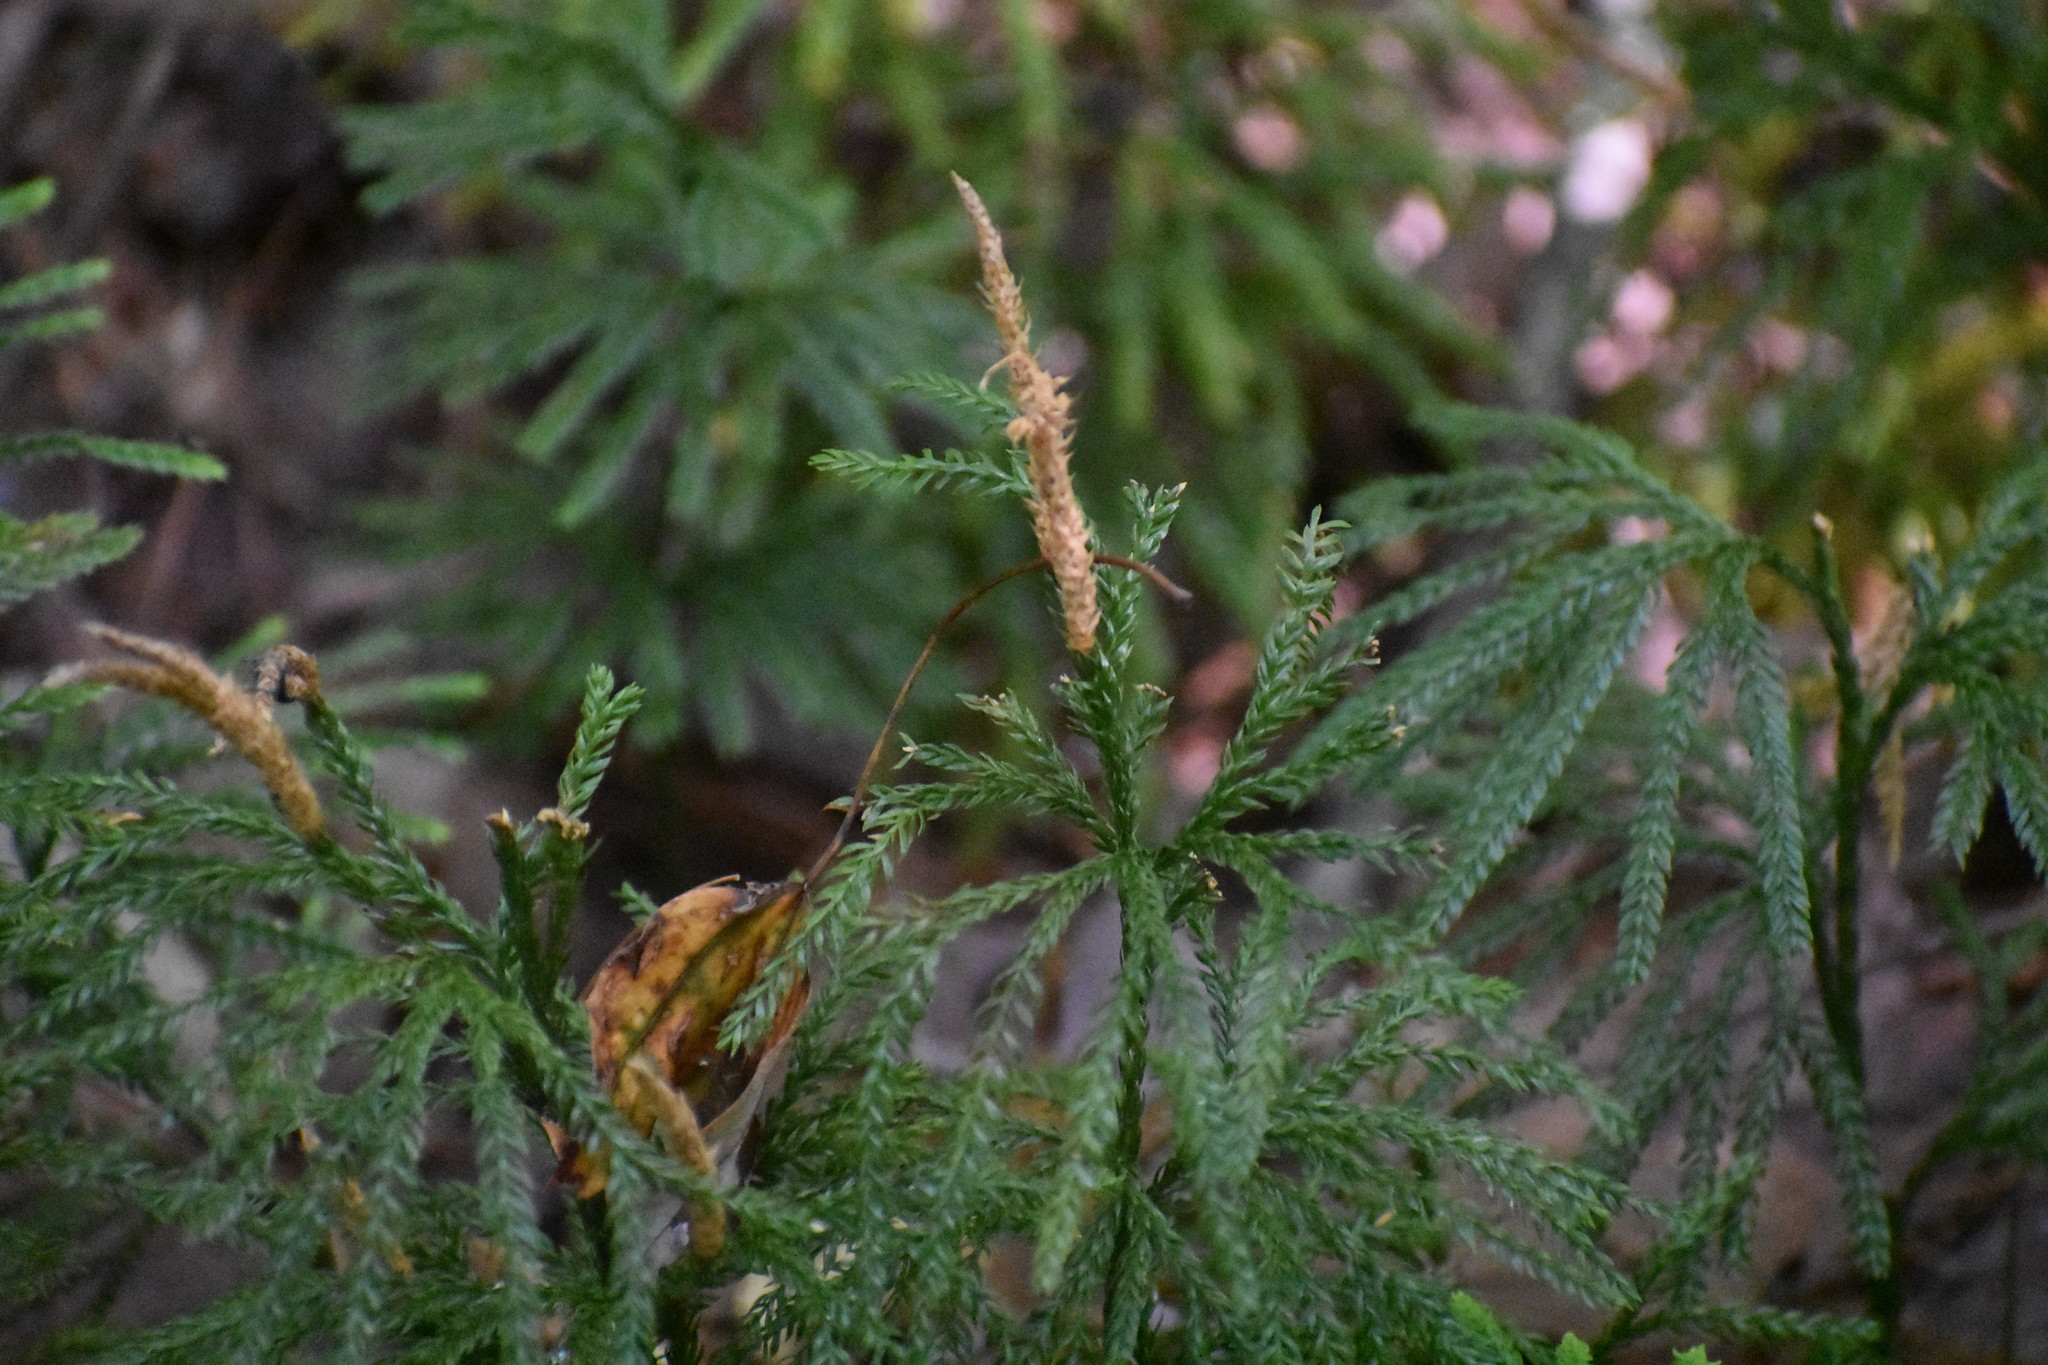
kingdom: Plantae
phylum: Tracheophyta
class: Lycopodiopsida
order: Lycopodiales
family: Lycopodiaceae
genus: Dendrolycopodium
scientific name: Dendrolycopodium obscurum
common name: Common ground-pine
